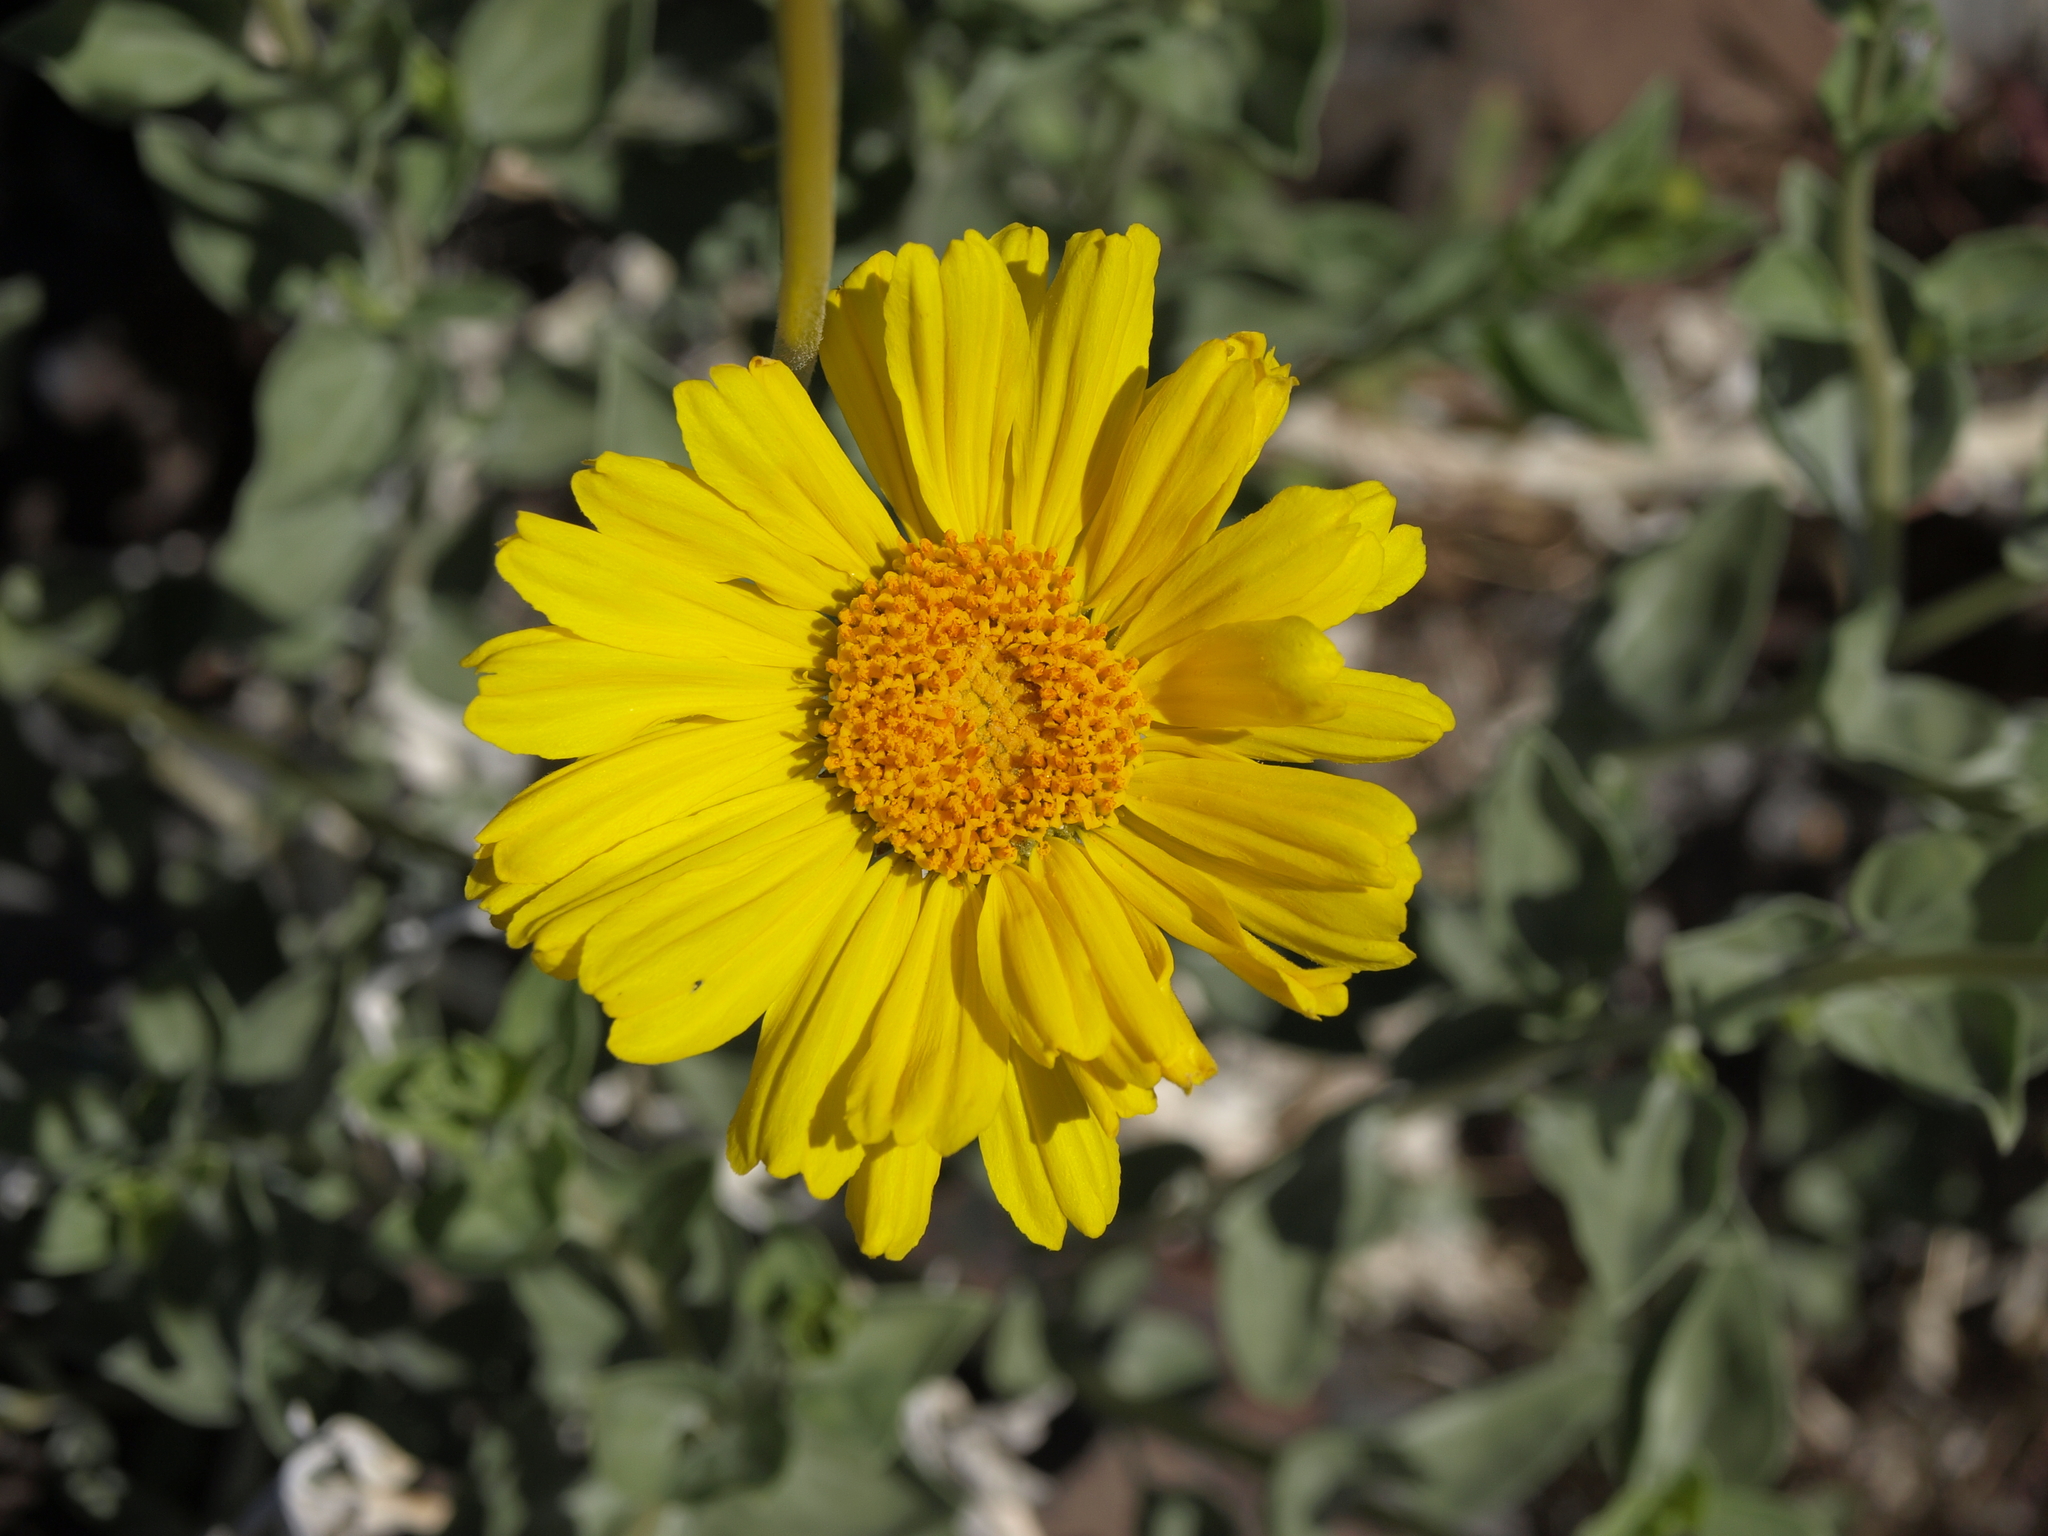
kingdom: Plantae
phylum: Tracheophyta
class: Magnoliopsida
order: Asterales
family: Asteraceae
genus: Encelia
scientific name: Encelia actoni
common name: Acton encelia
